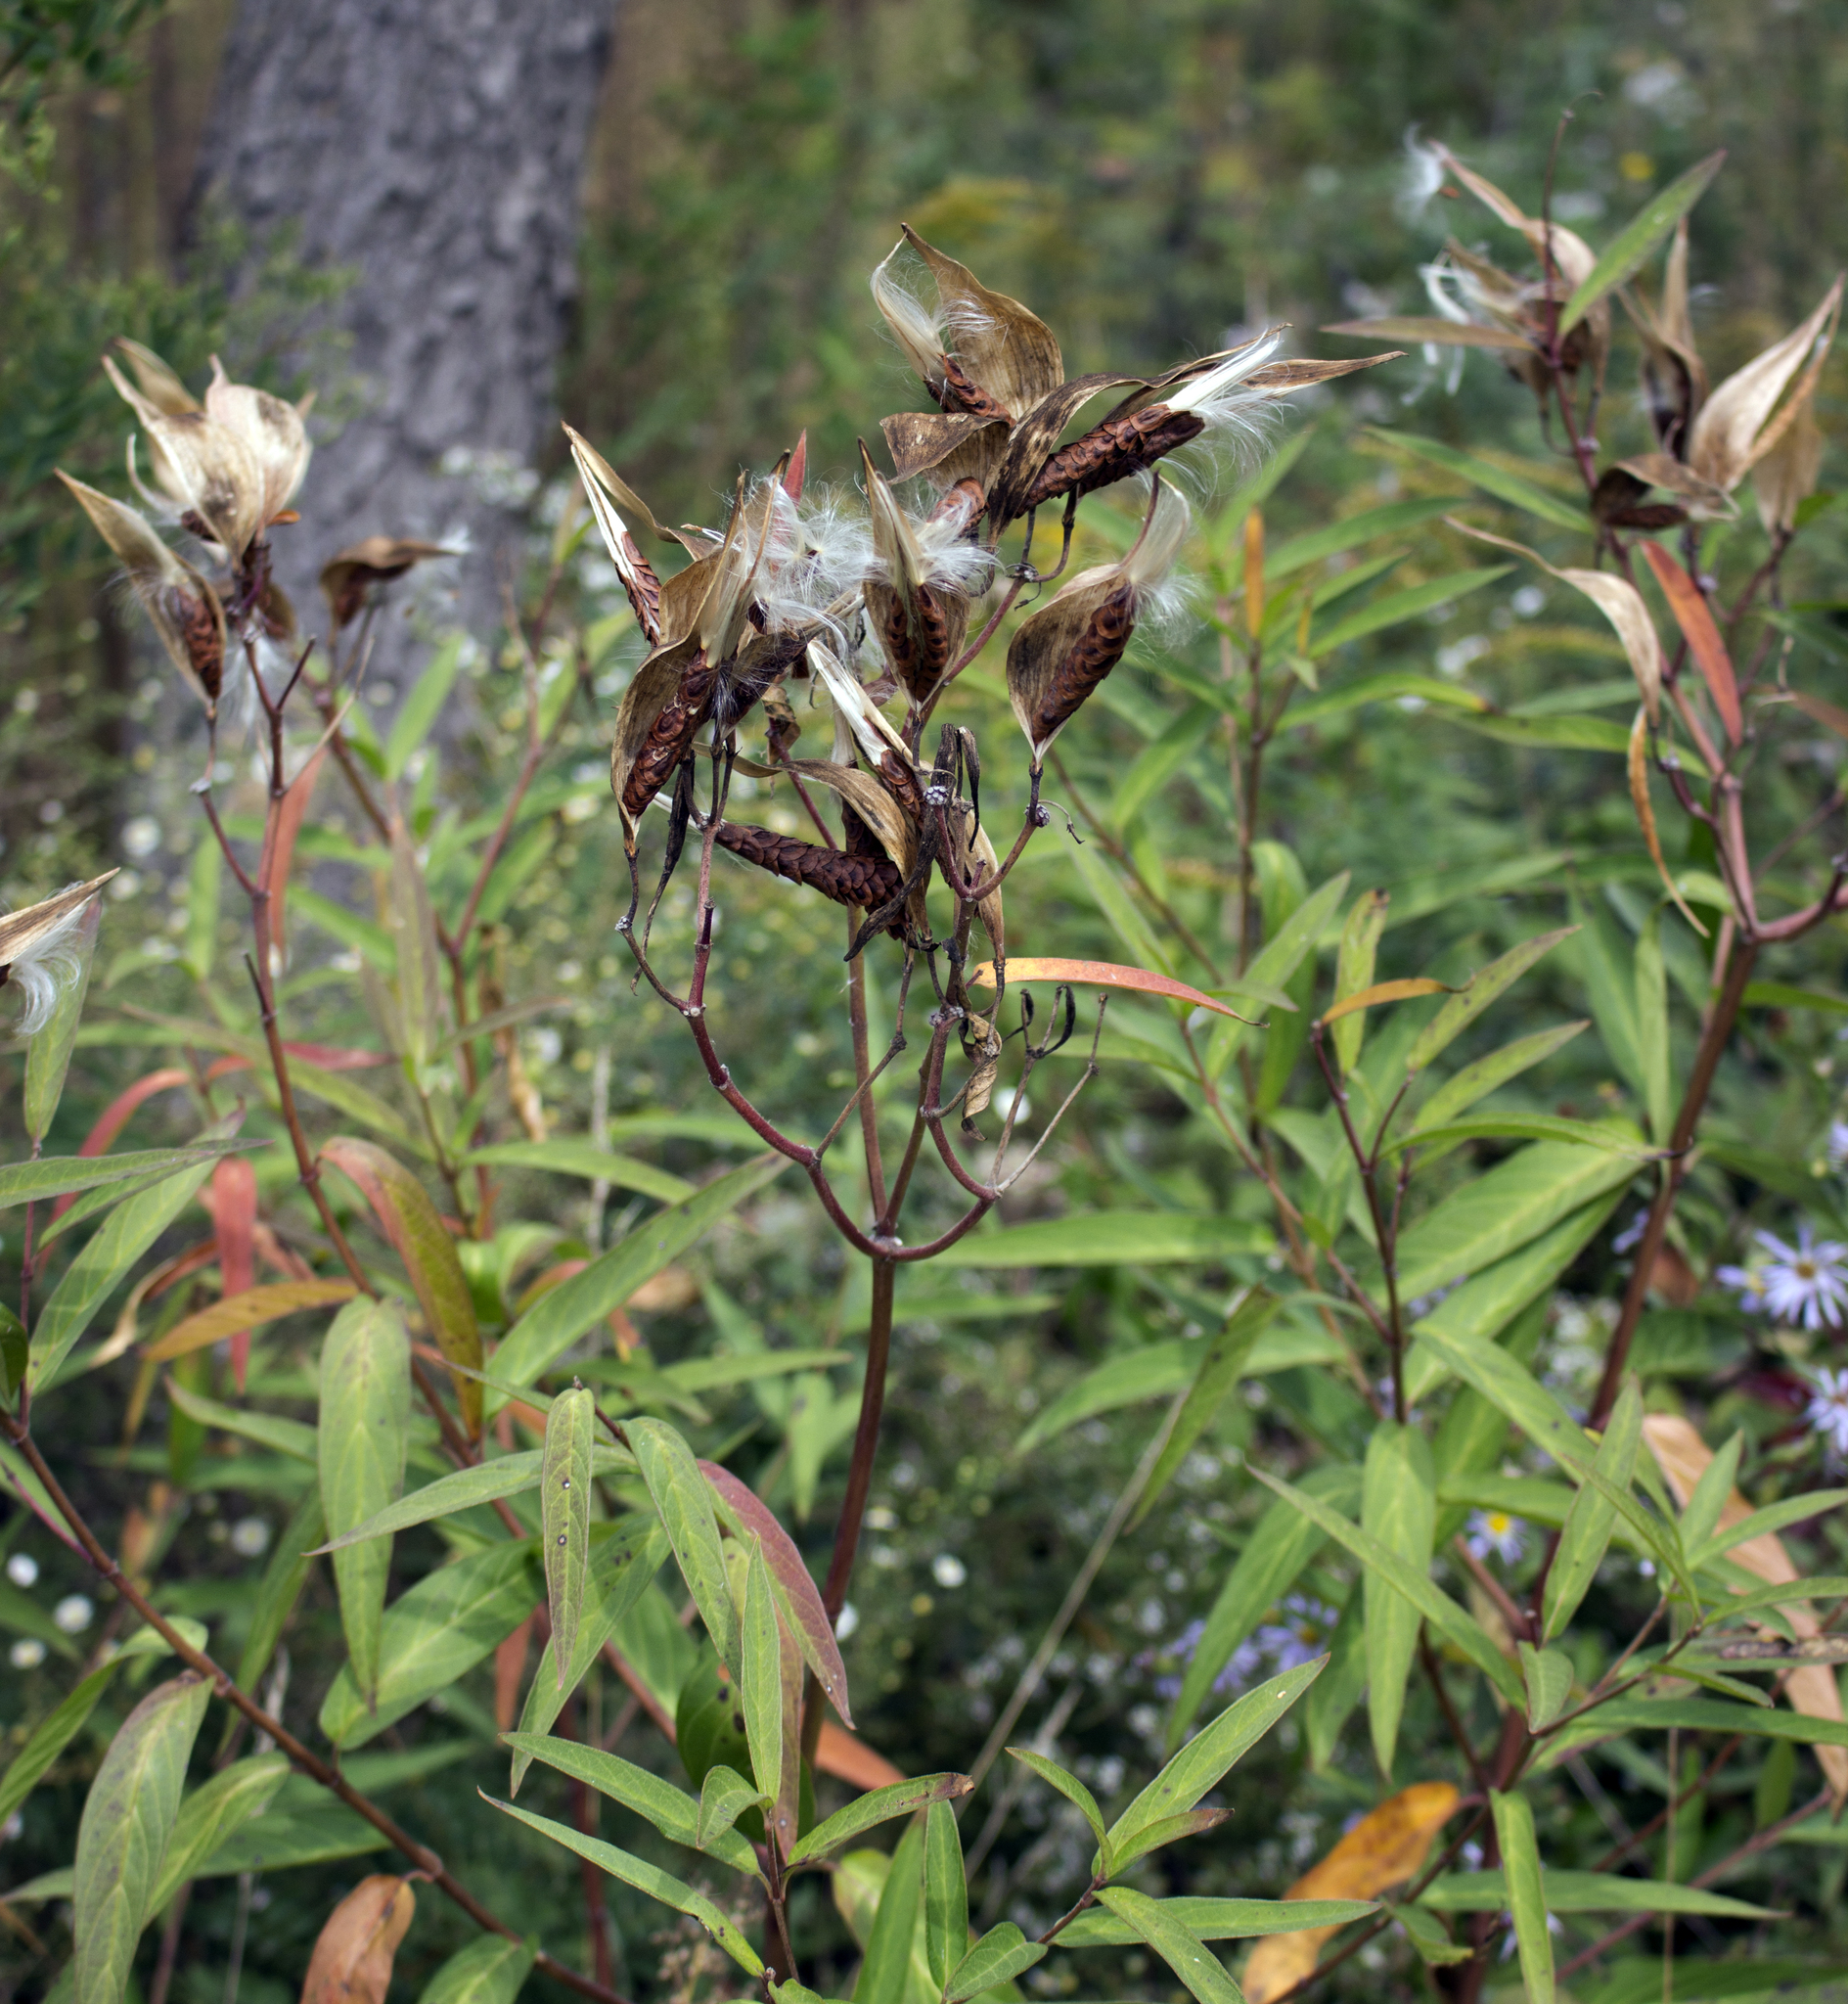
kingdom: Plantae
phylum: Tracheophyta
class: Magnoliopsida
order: Gentianales
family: Apocynaceae
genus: Asclepias
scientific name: Asclepias incarnata
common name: Swamp milkweed
